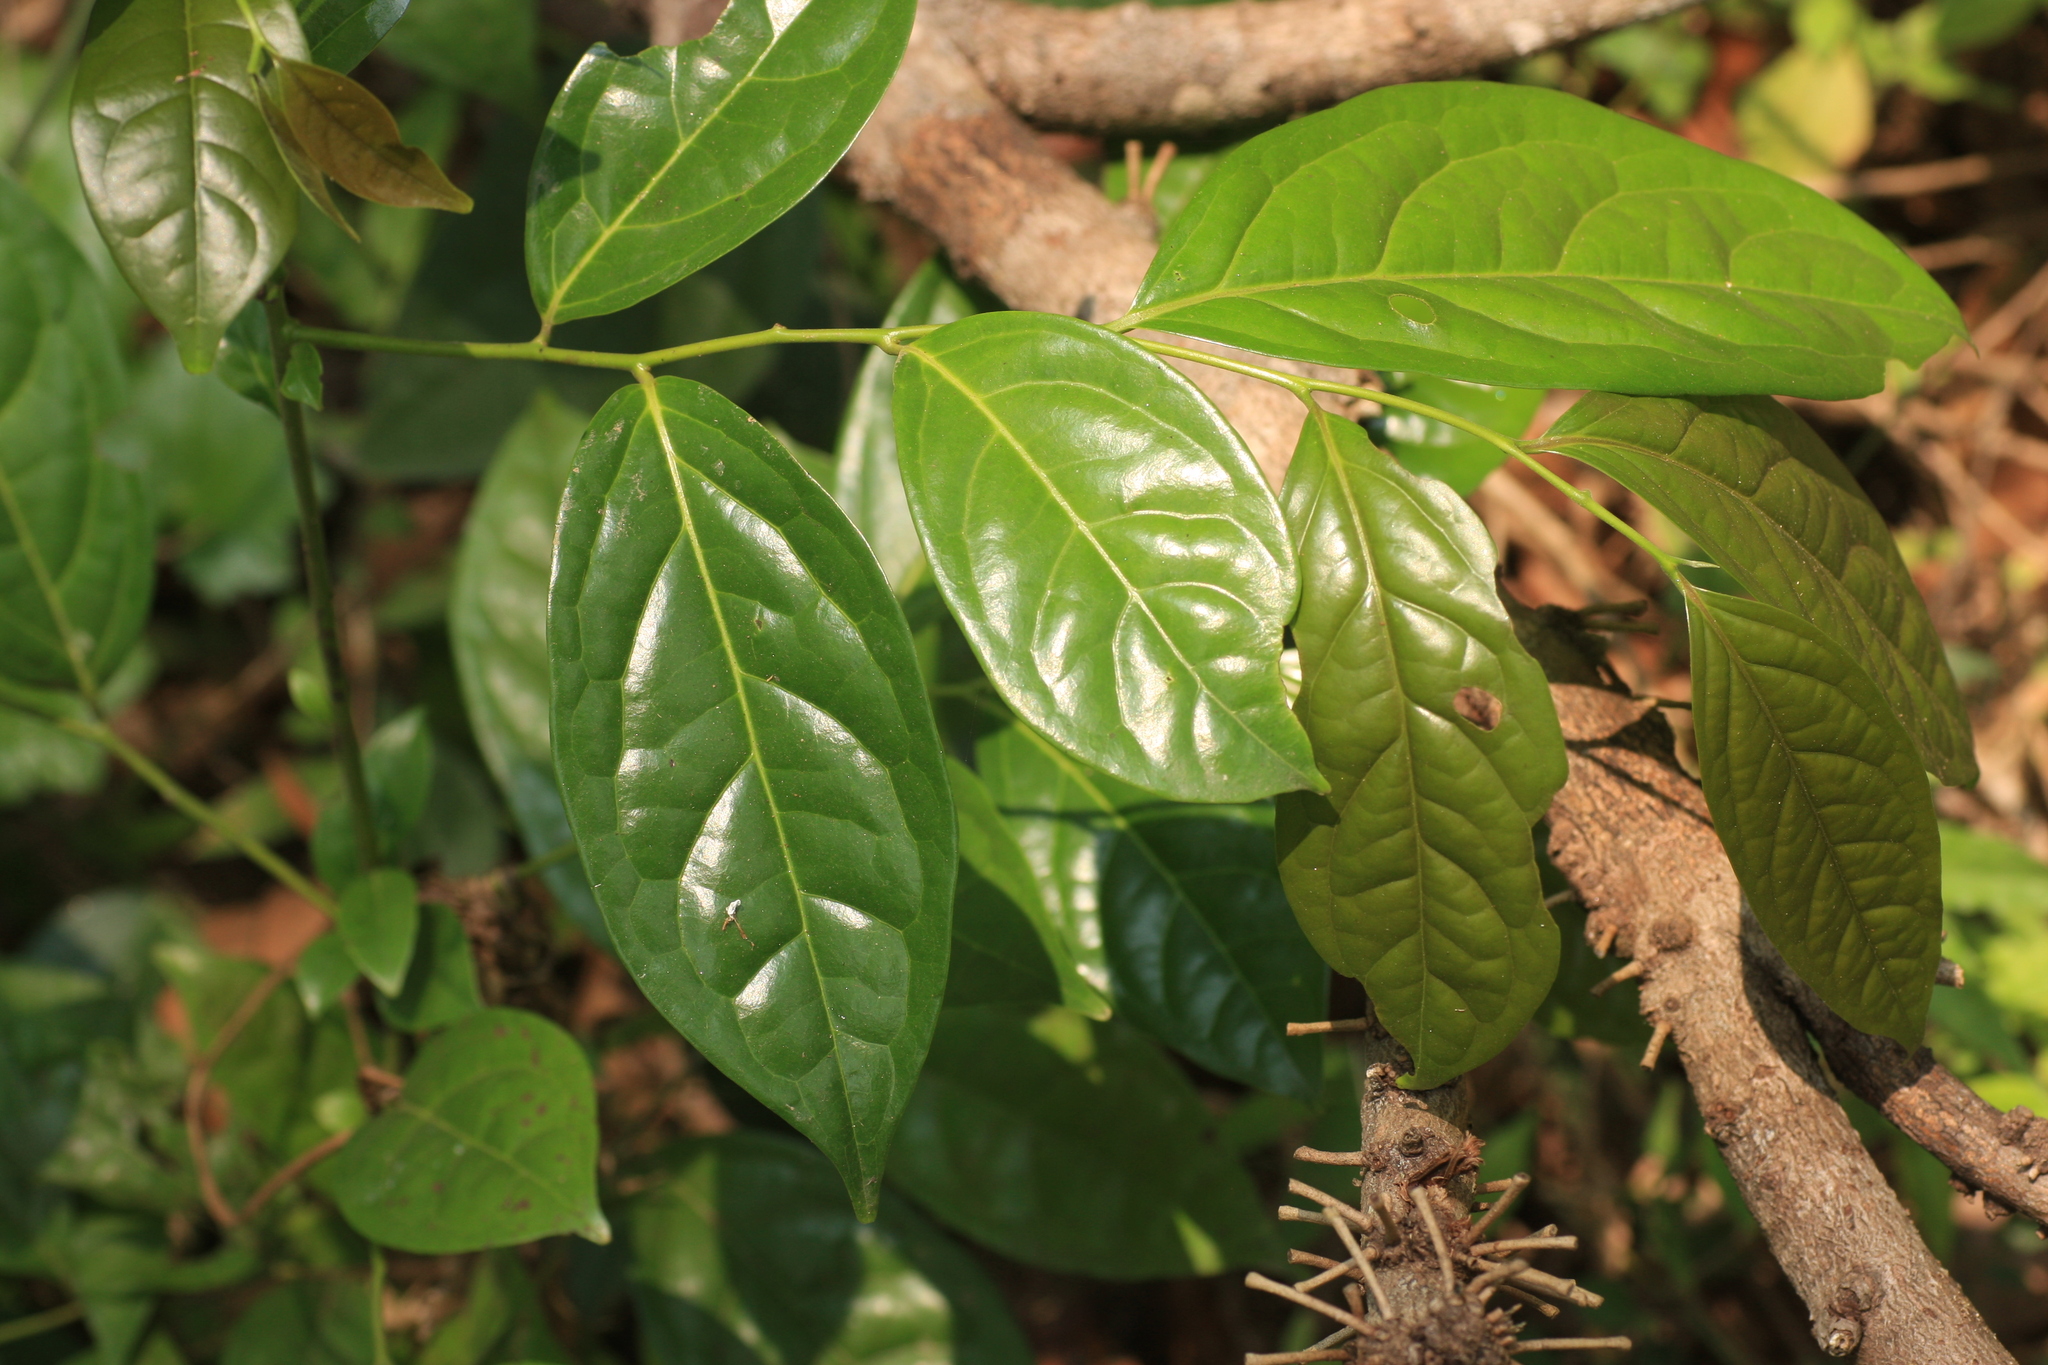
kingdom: Plantae
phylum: Tracheophyta
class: Magnoliopsida
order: Ericales
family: Ebenaceae
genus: Diospyros
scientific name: Diospyros sylvatica
